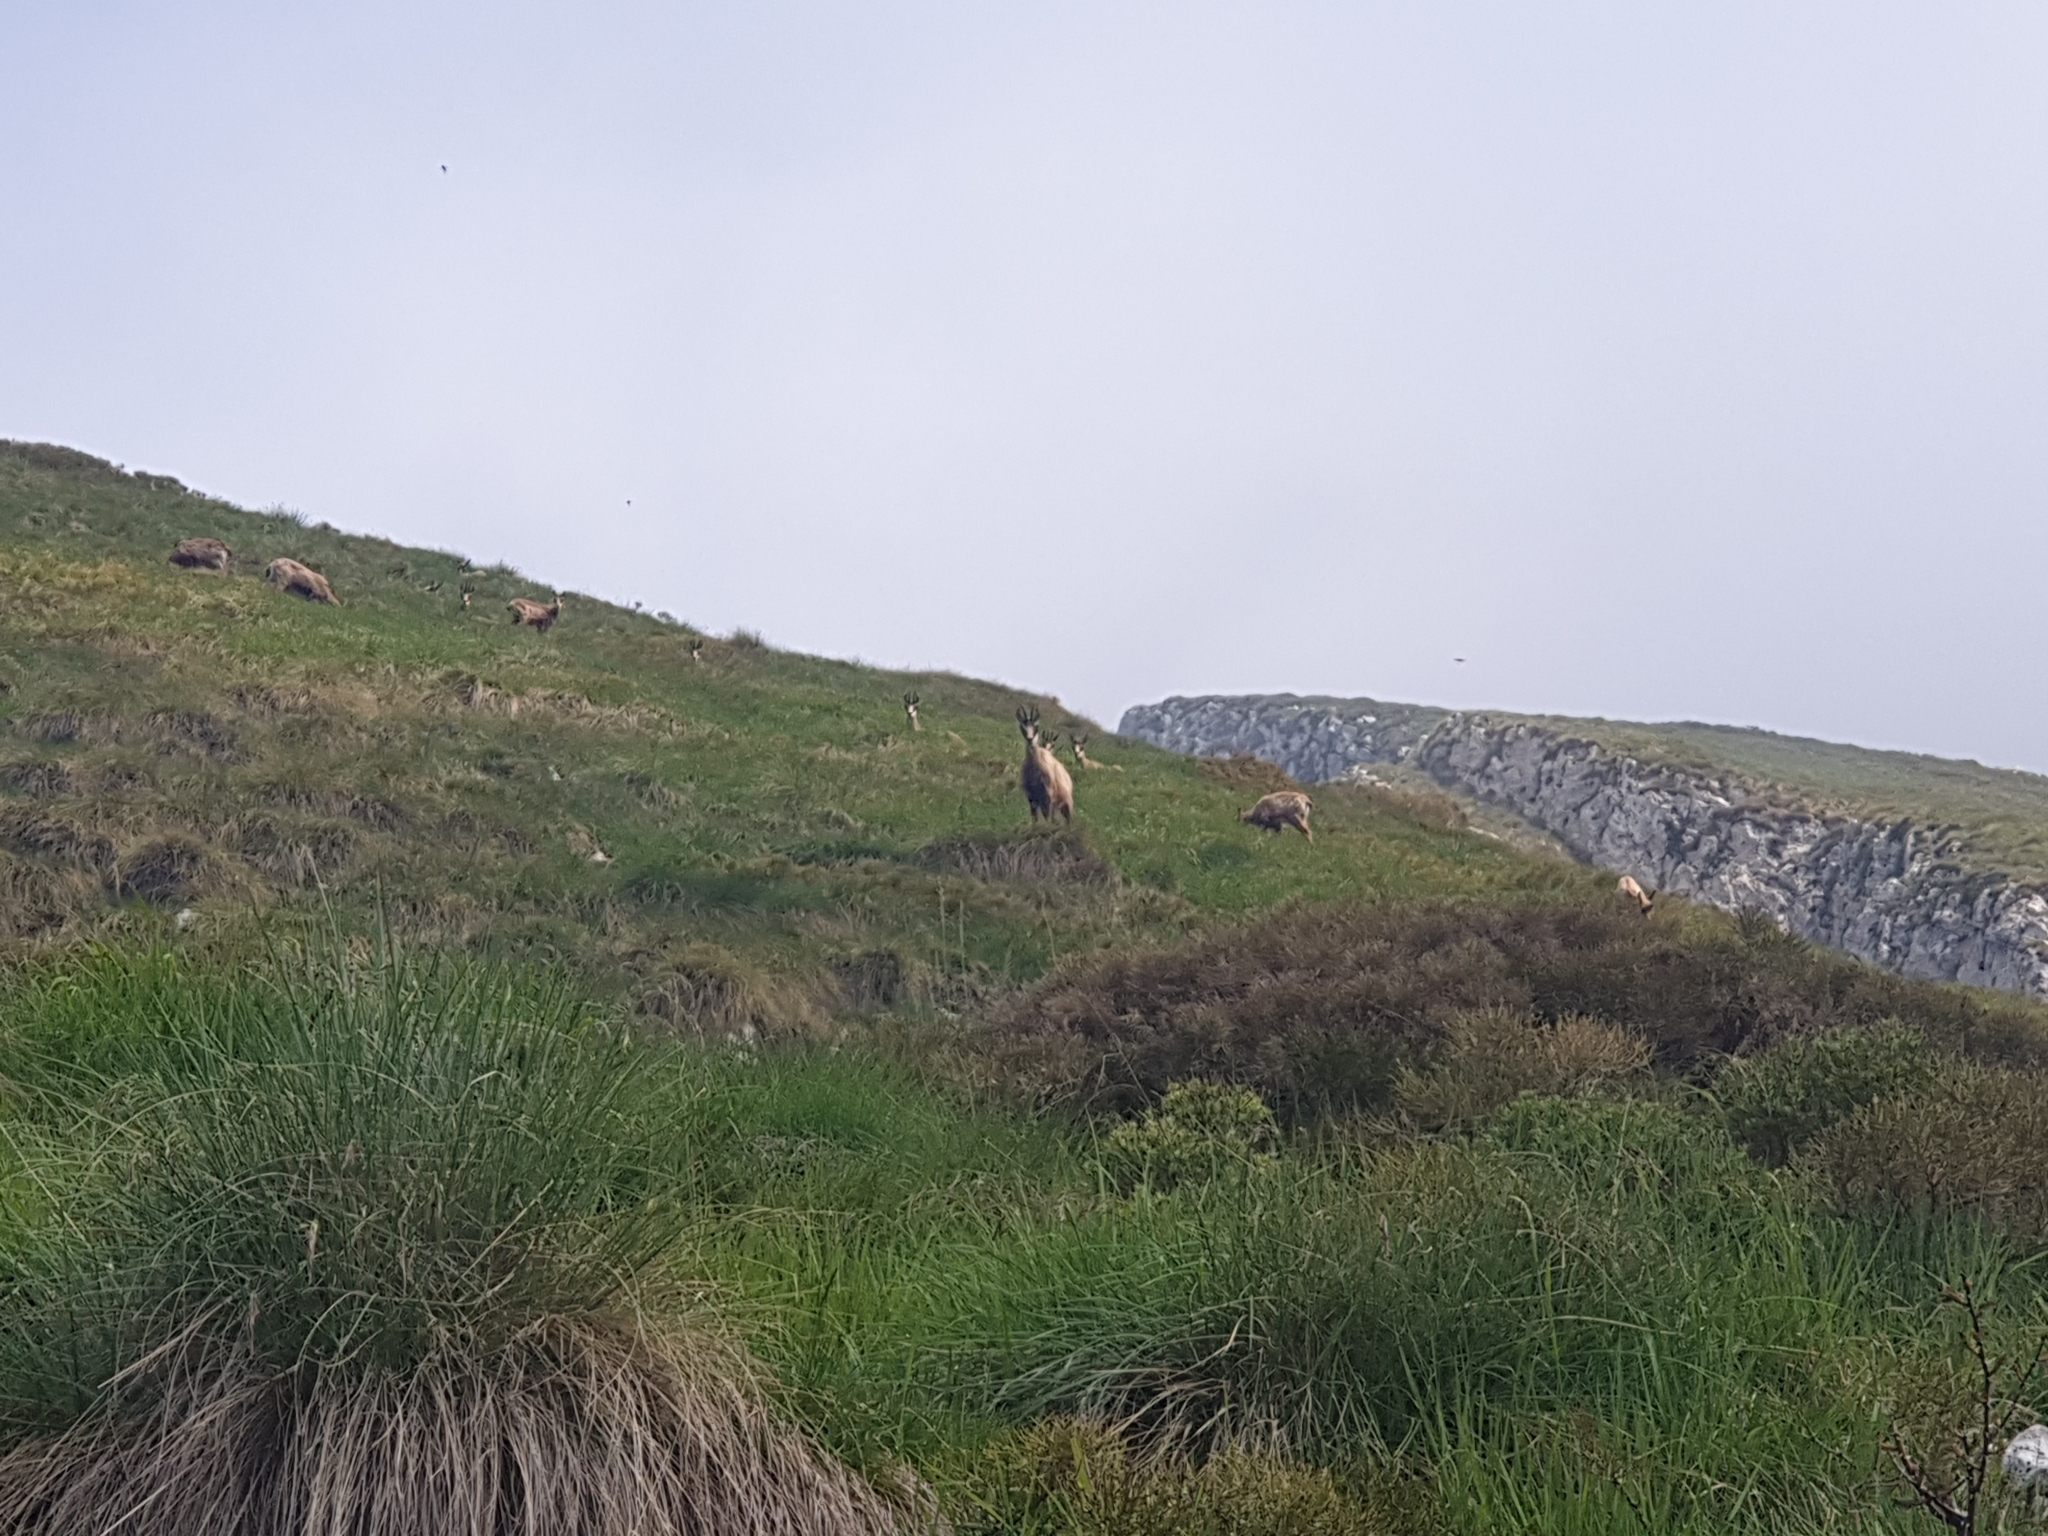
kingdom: Animalia
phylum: Chordata
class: Mammalia
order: Artiodactyla
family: Bovidae
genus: Rupicapra
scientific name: Rupicapra rupicapra
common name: Chamois
